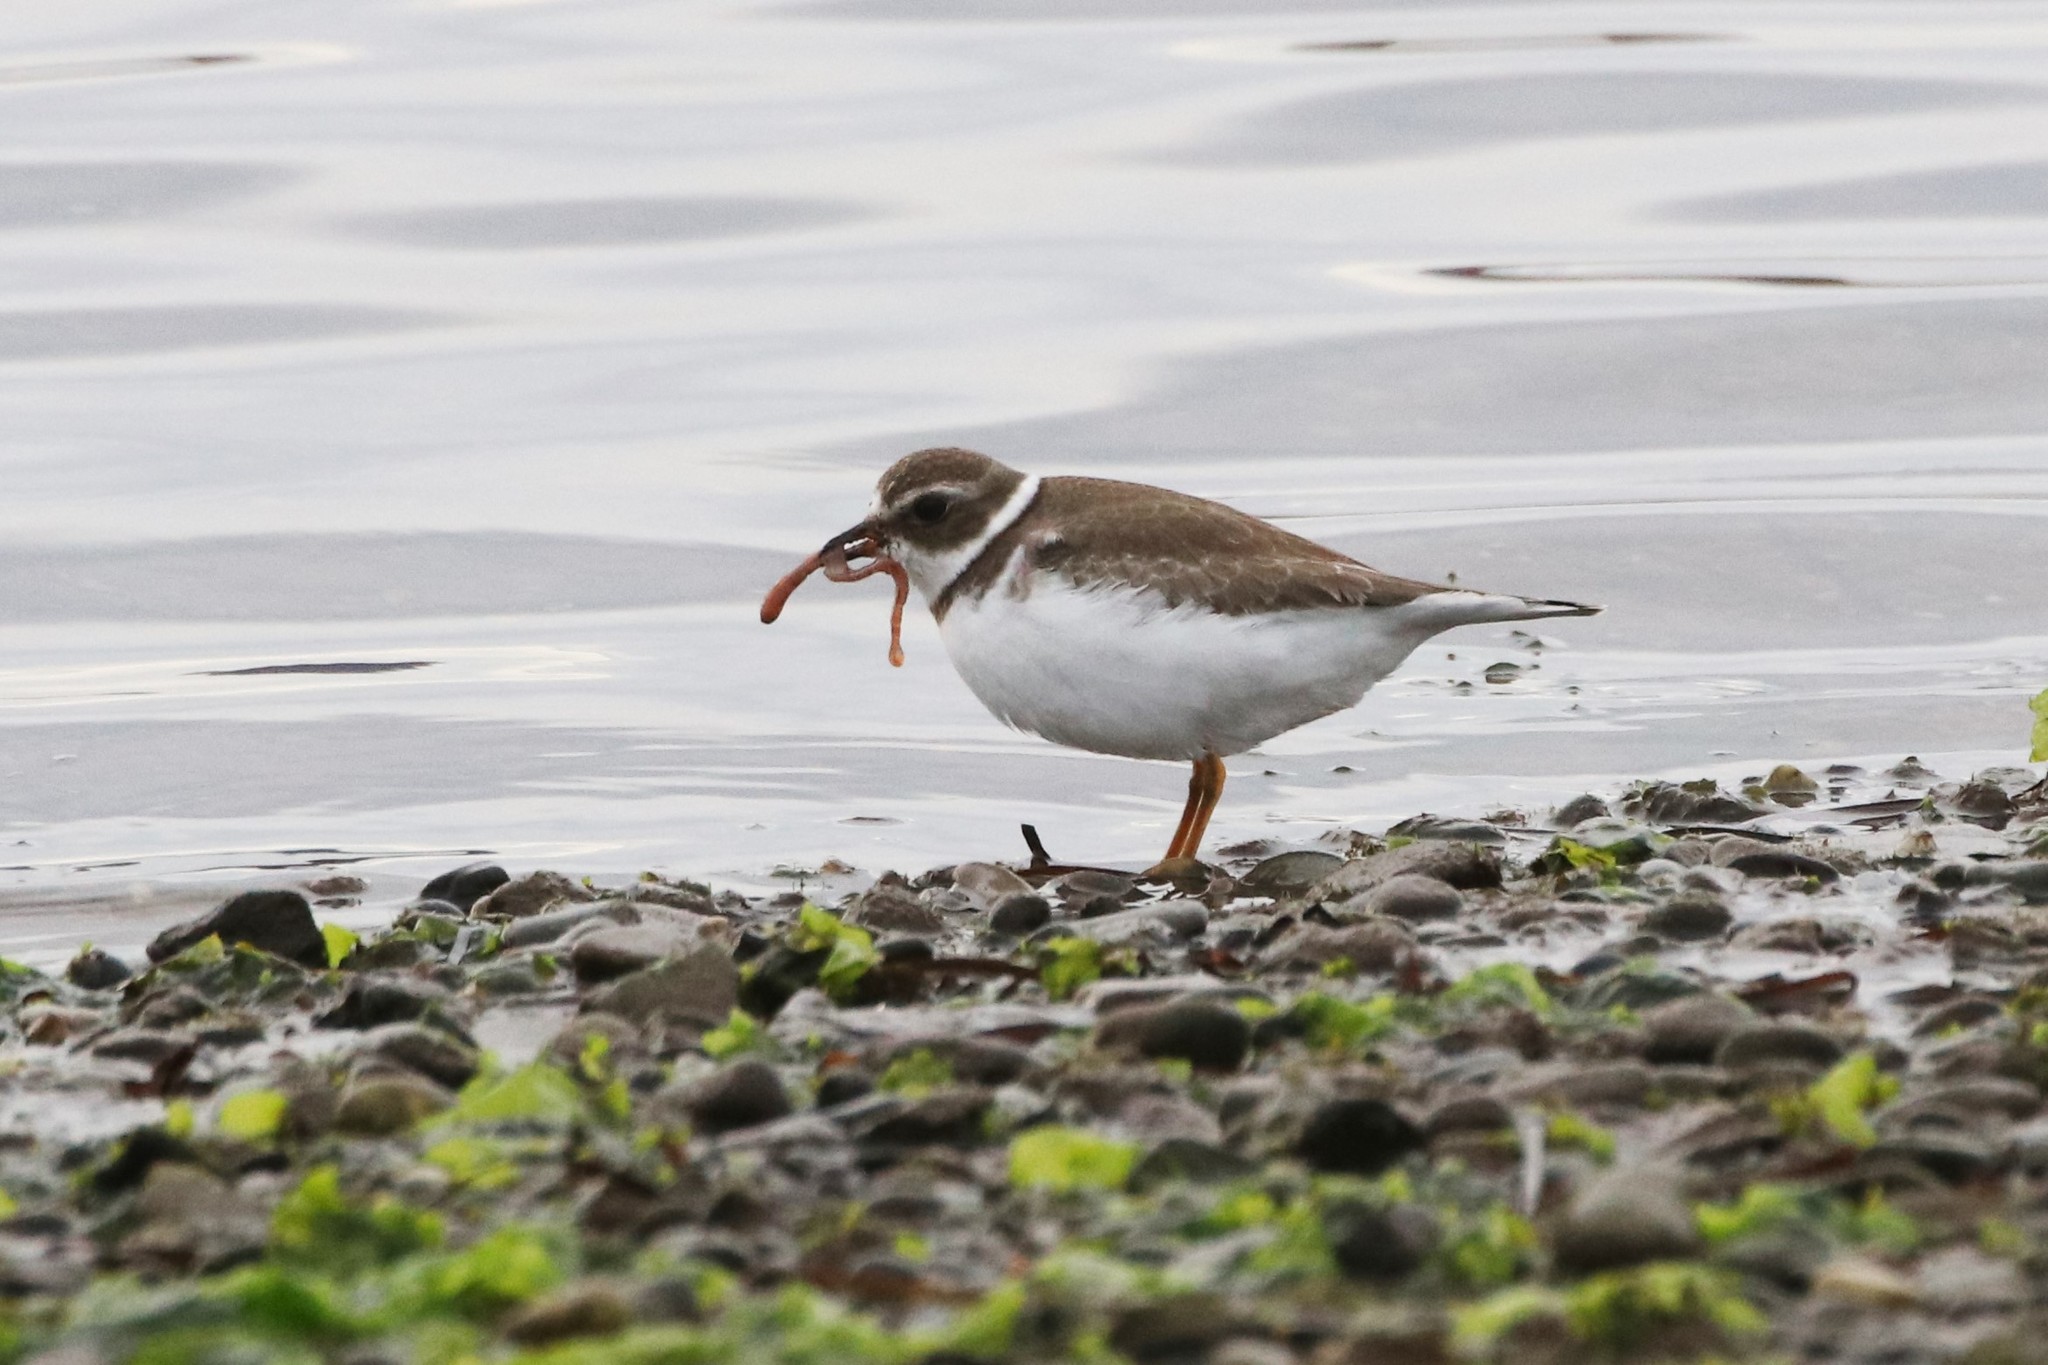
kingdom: Animalia
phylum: Chordata
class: Aves
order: Charadriiformes
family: Charadriidae
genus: Charadrius
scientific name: Charadrius semipalmatus
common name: Semipalmated plover
